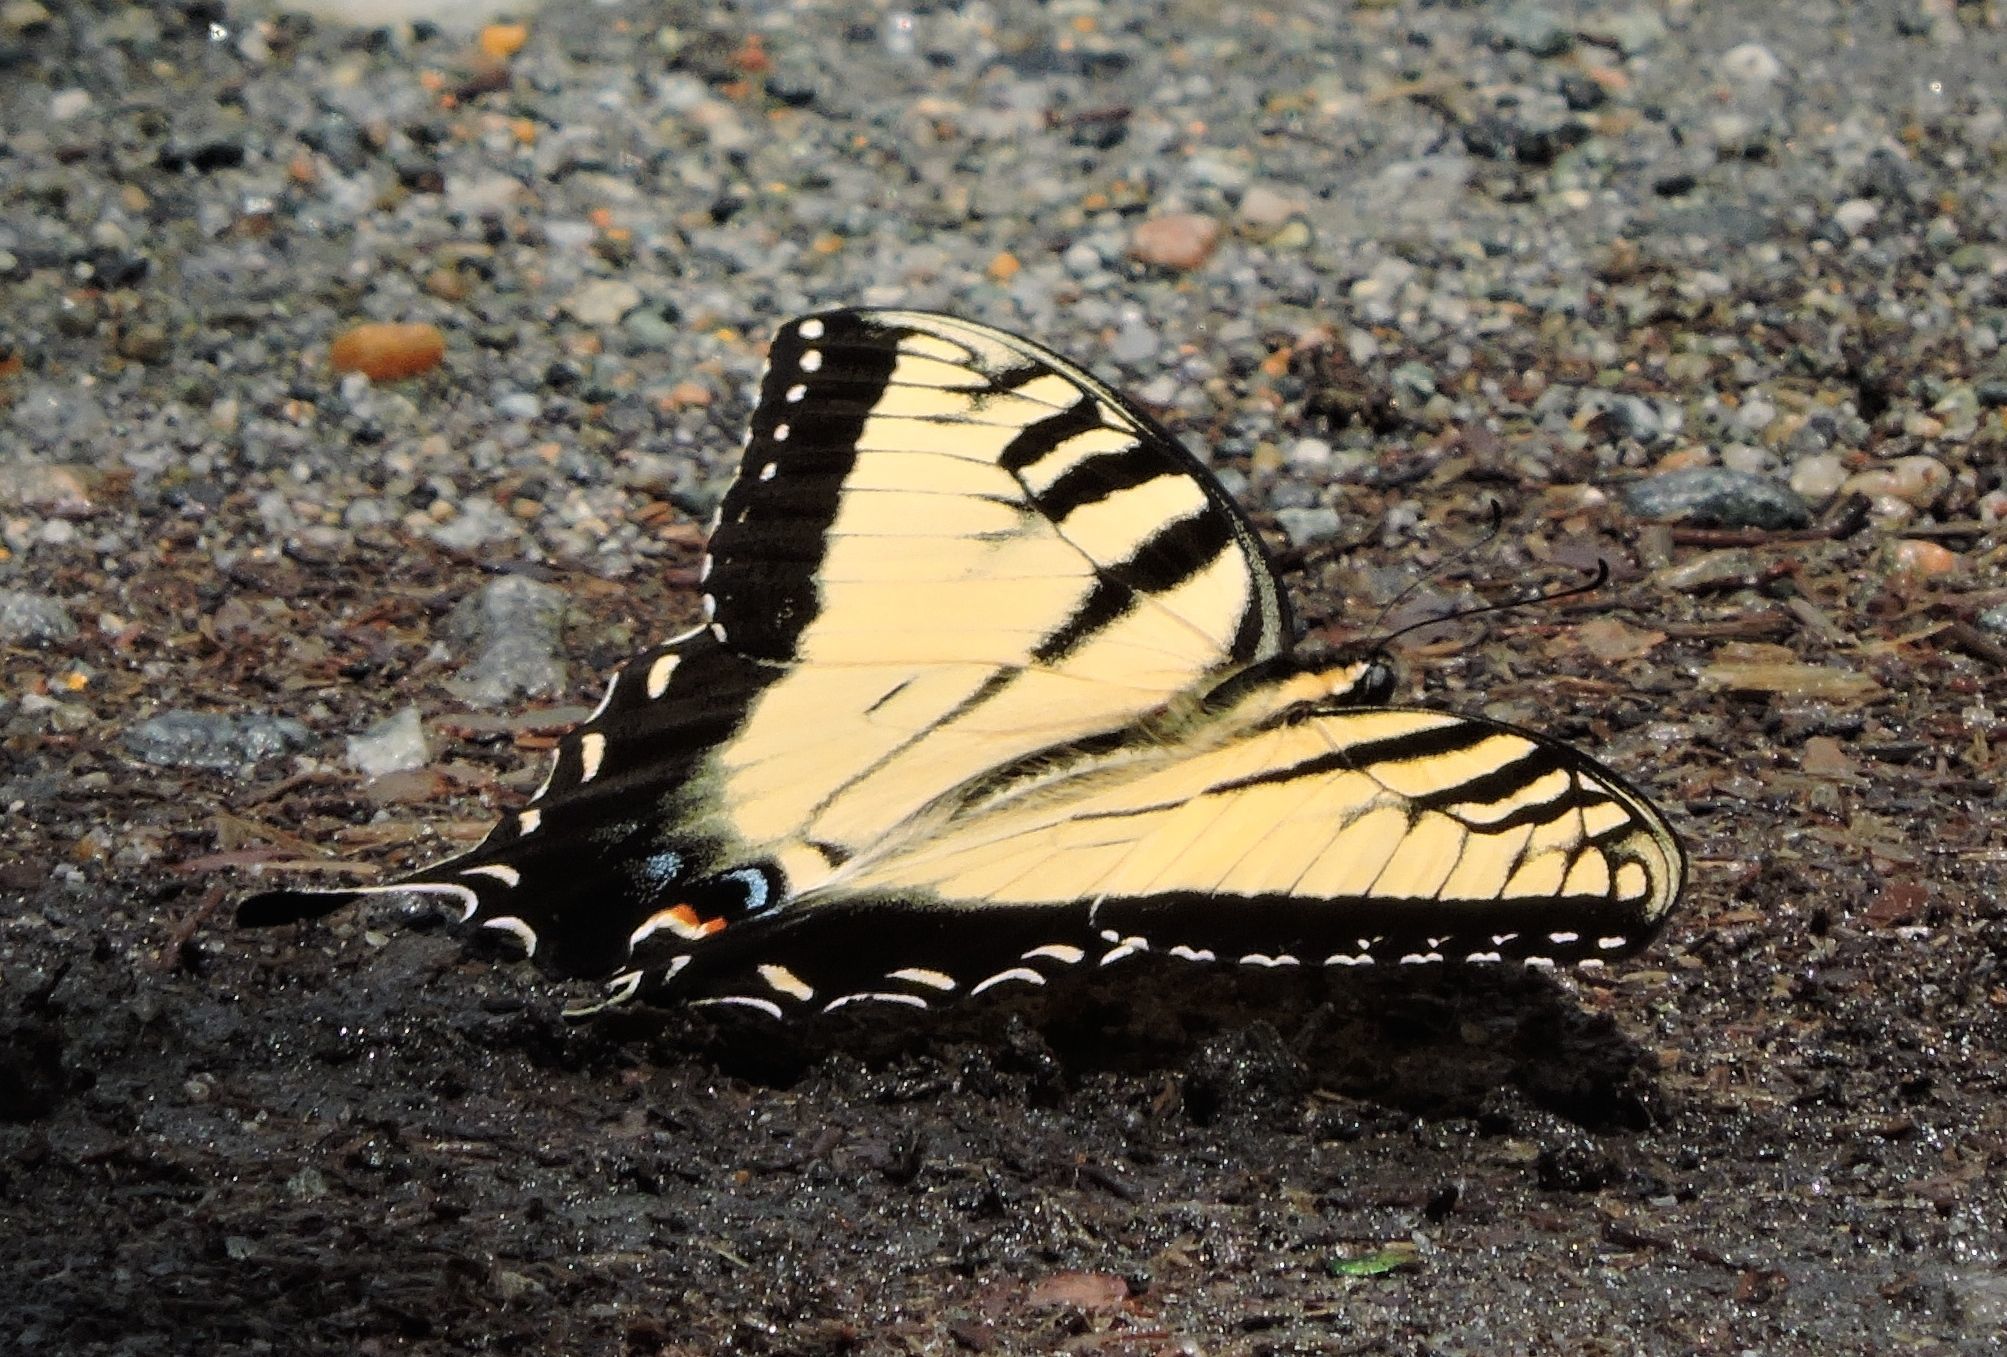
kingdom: Animalia
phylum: Arthropoda
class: Insecta
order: Lepidoptera
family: Papilionidae
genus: Papilio
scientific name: Papilio glaucus
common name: Tiger swallowtail
